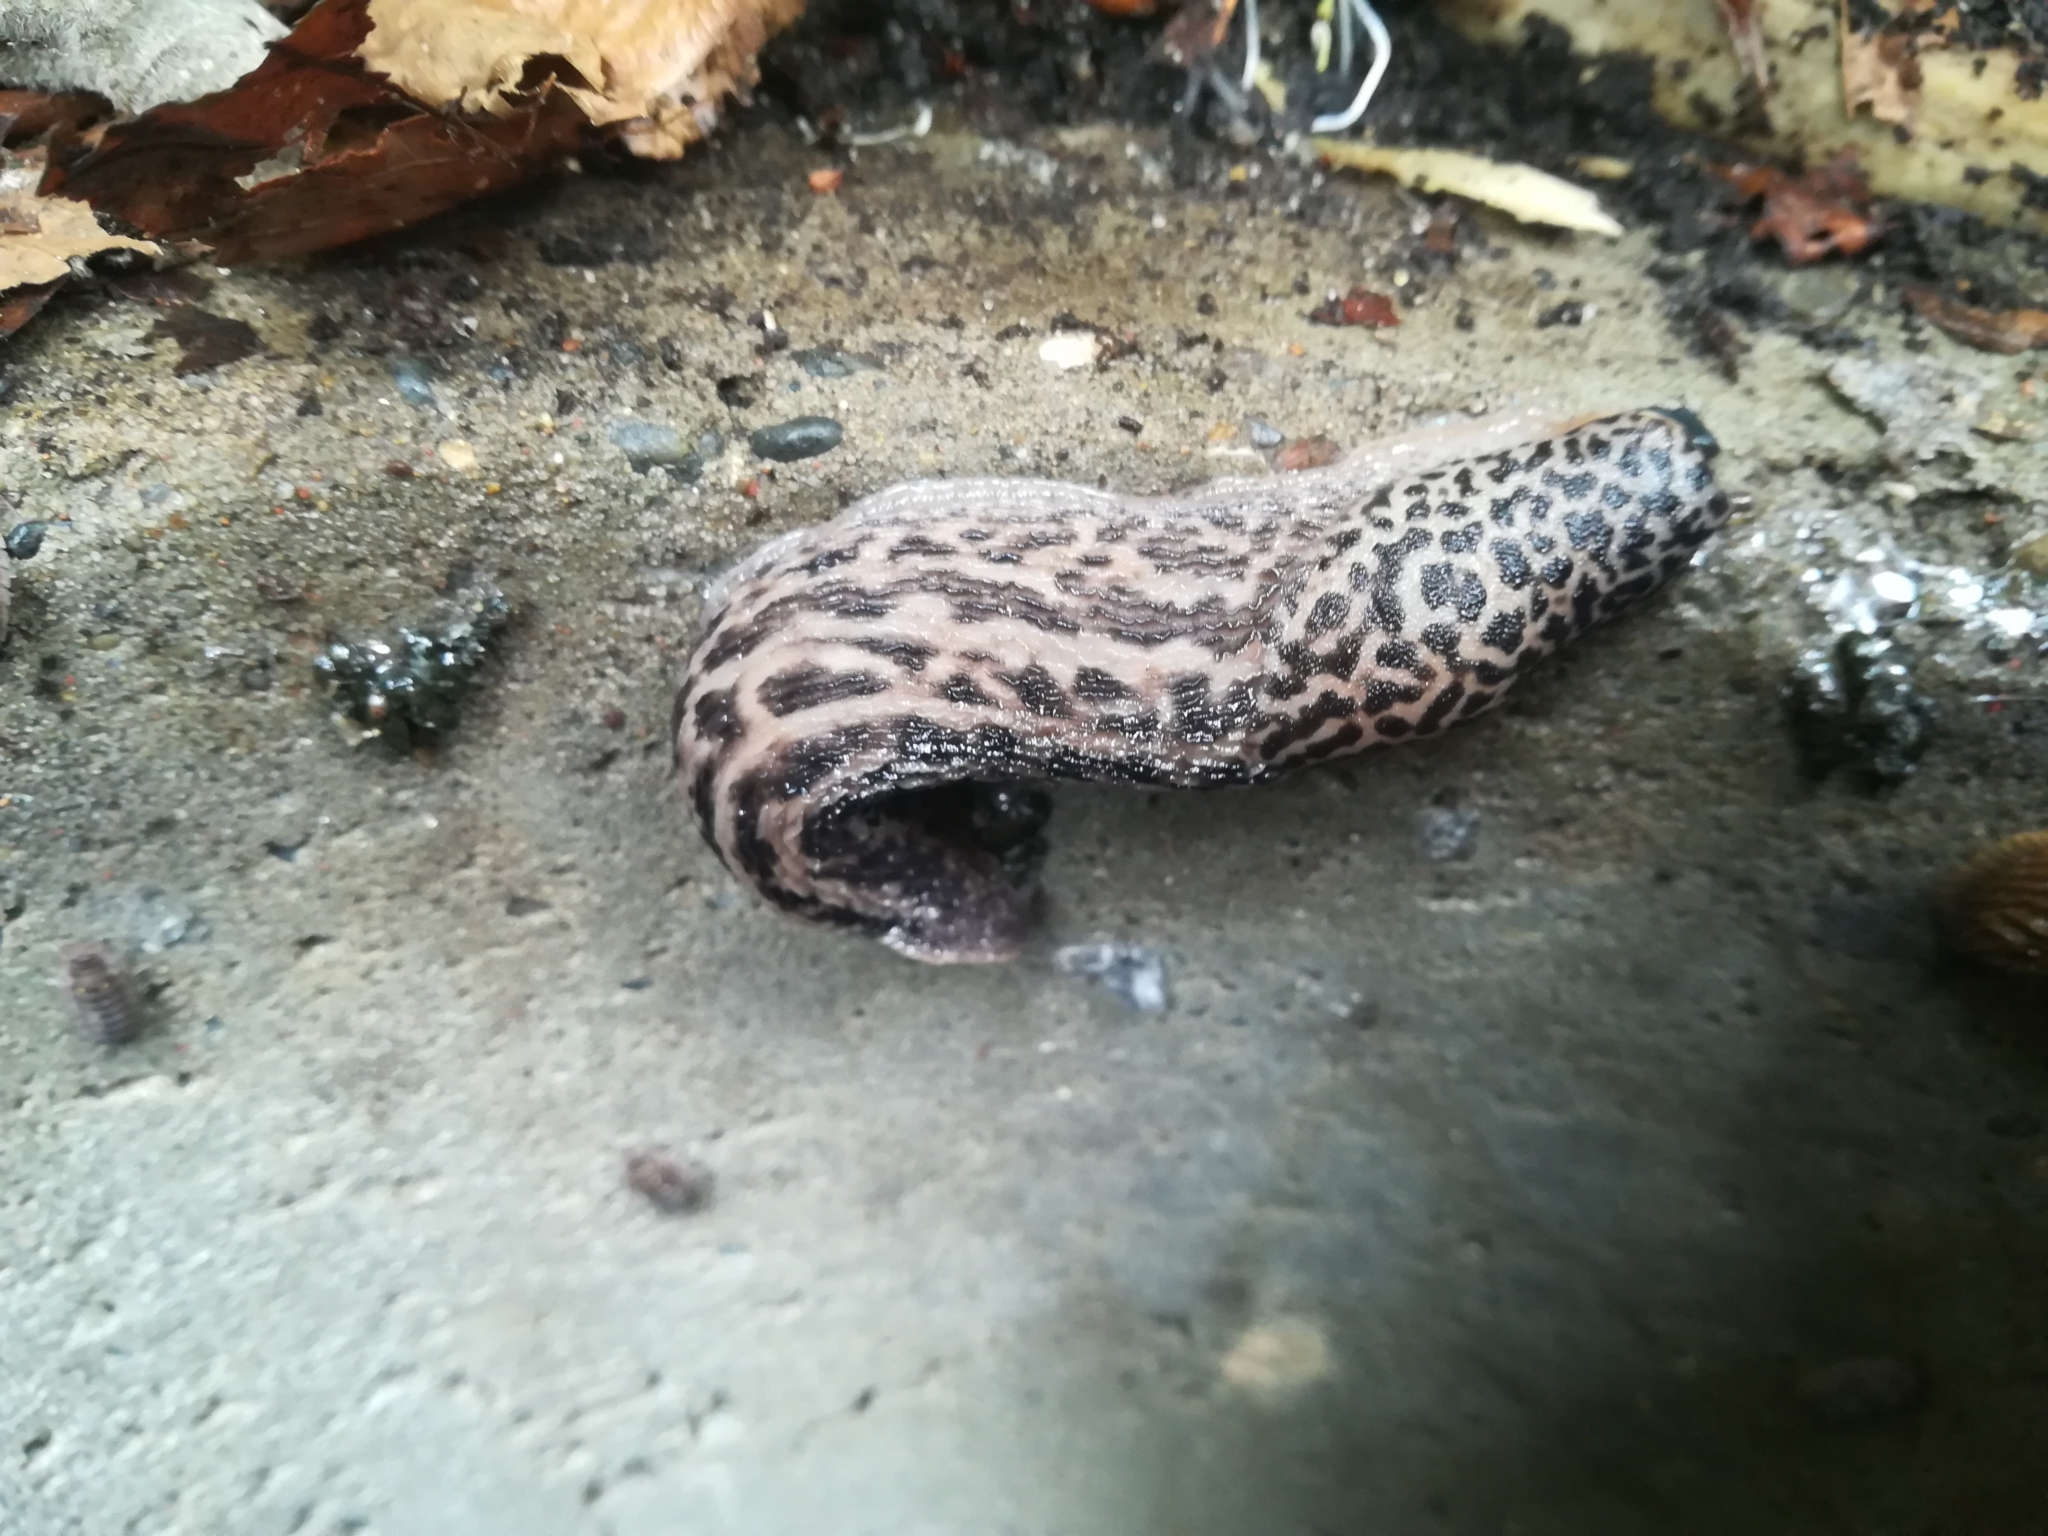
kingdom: Animalia
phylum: Mollusca
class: Gastropoda
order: Stylommatophora
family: Limacidae
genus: Limax
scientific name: Limax maximus
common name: Great grey slug
